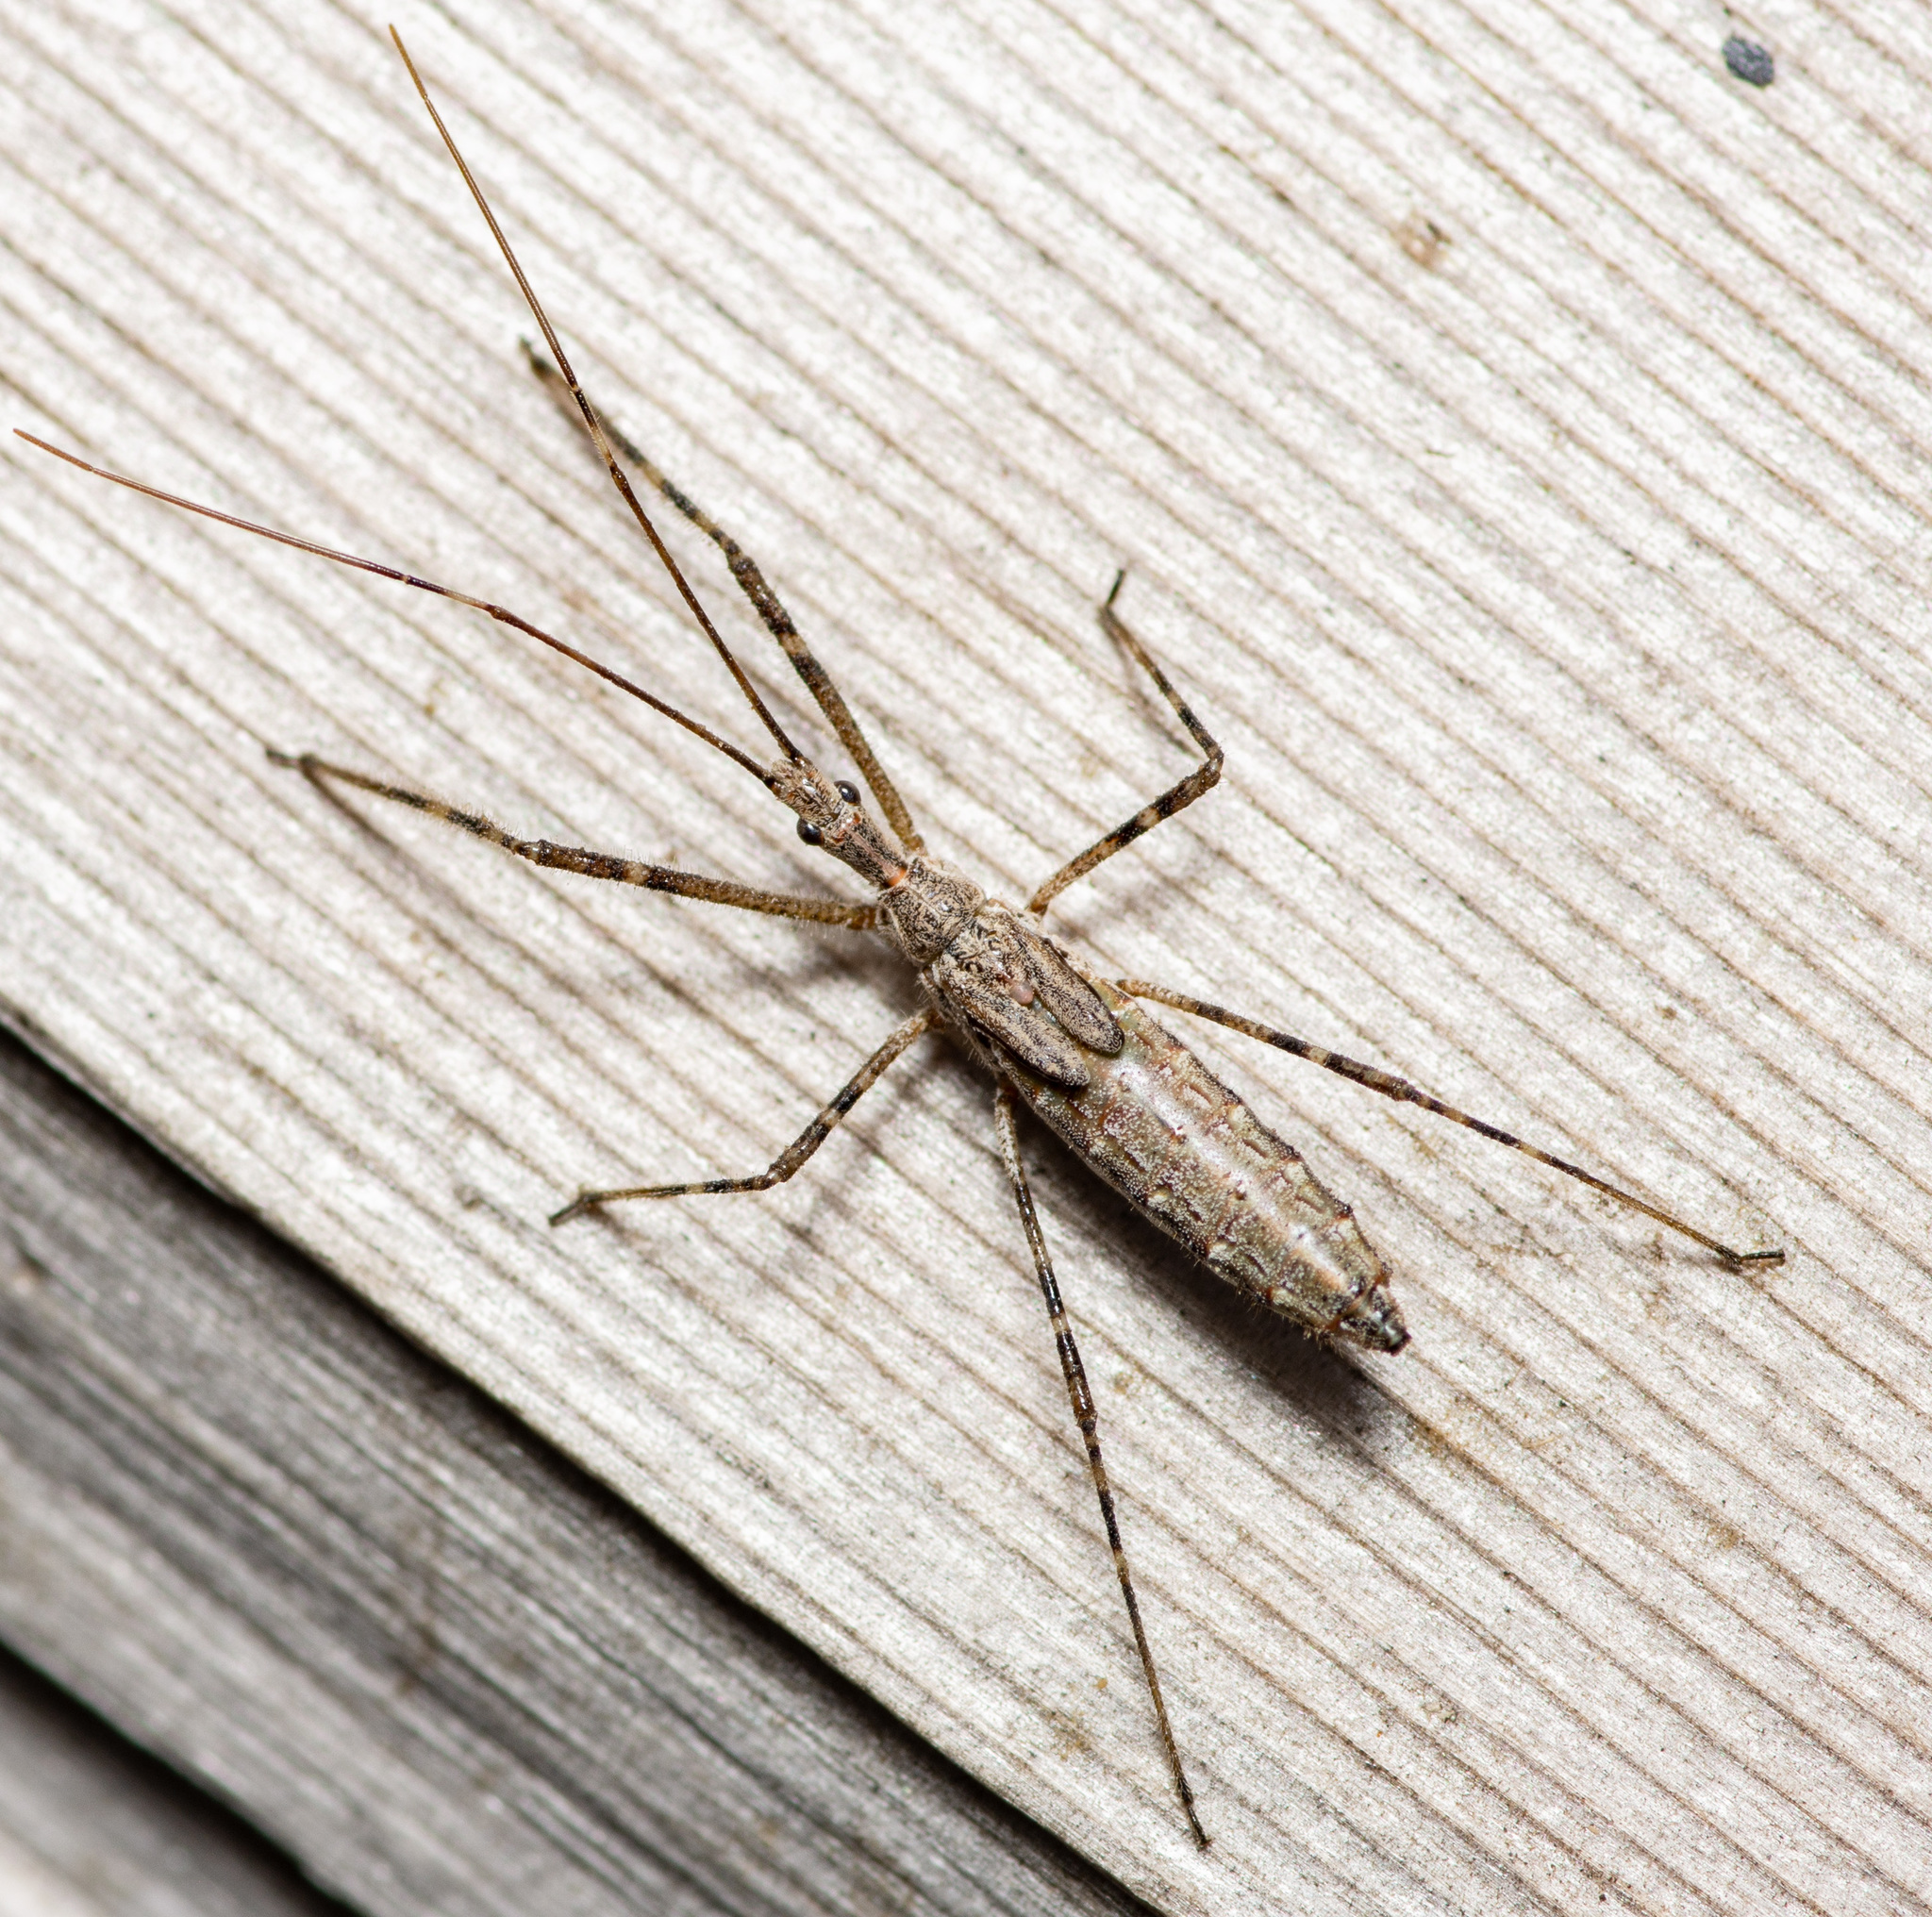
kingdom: Animalia
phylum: Arthropoda
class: Insecta
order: Hemiptera
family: Reduviidae
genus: Zelus
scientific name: Zelus tetracanthus
